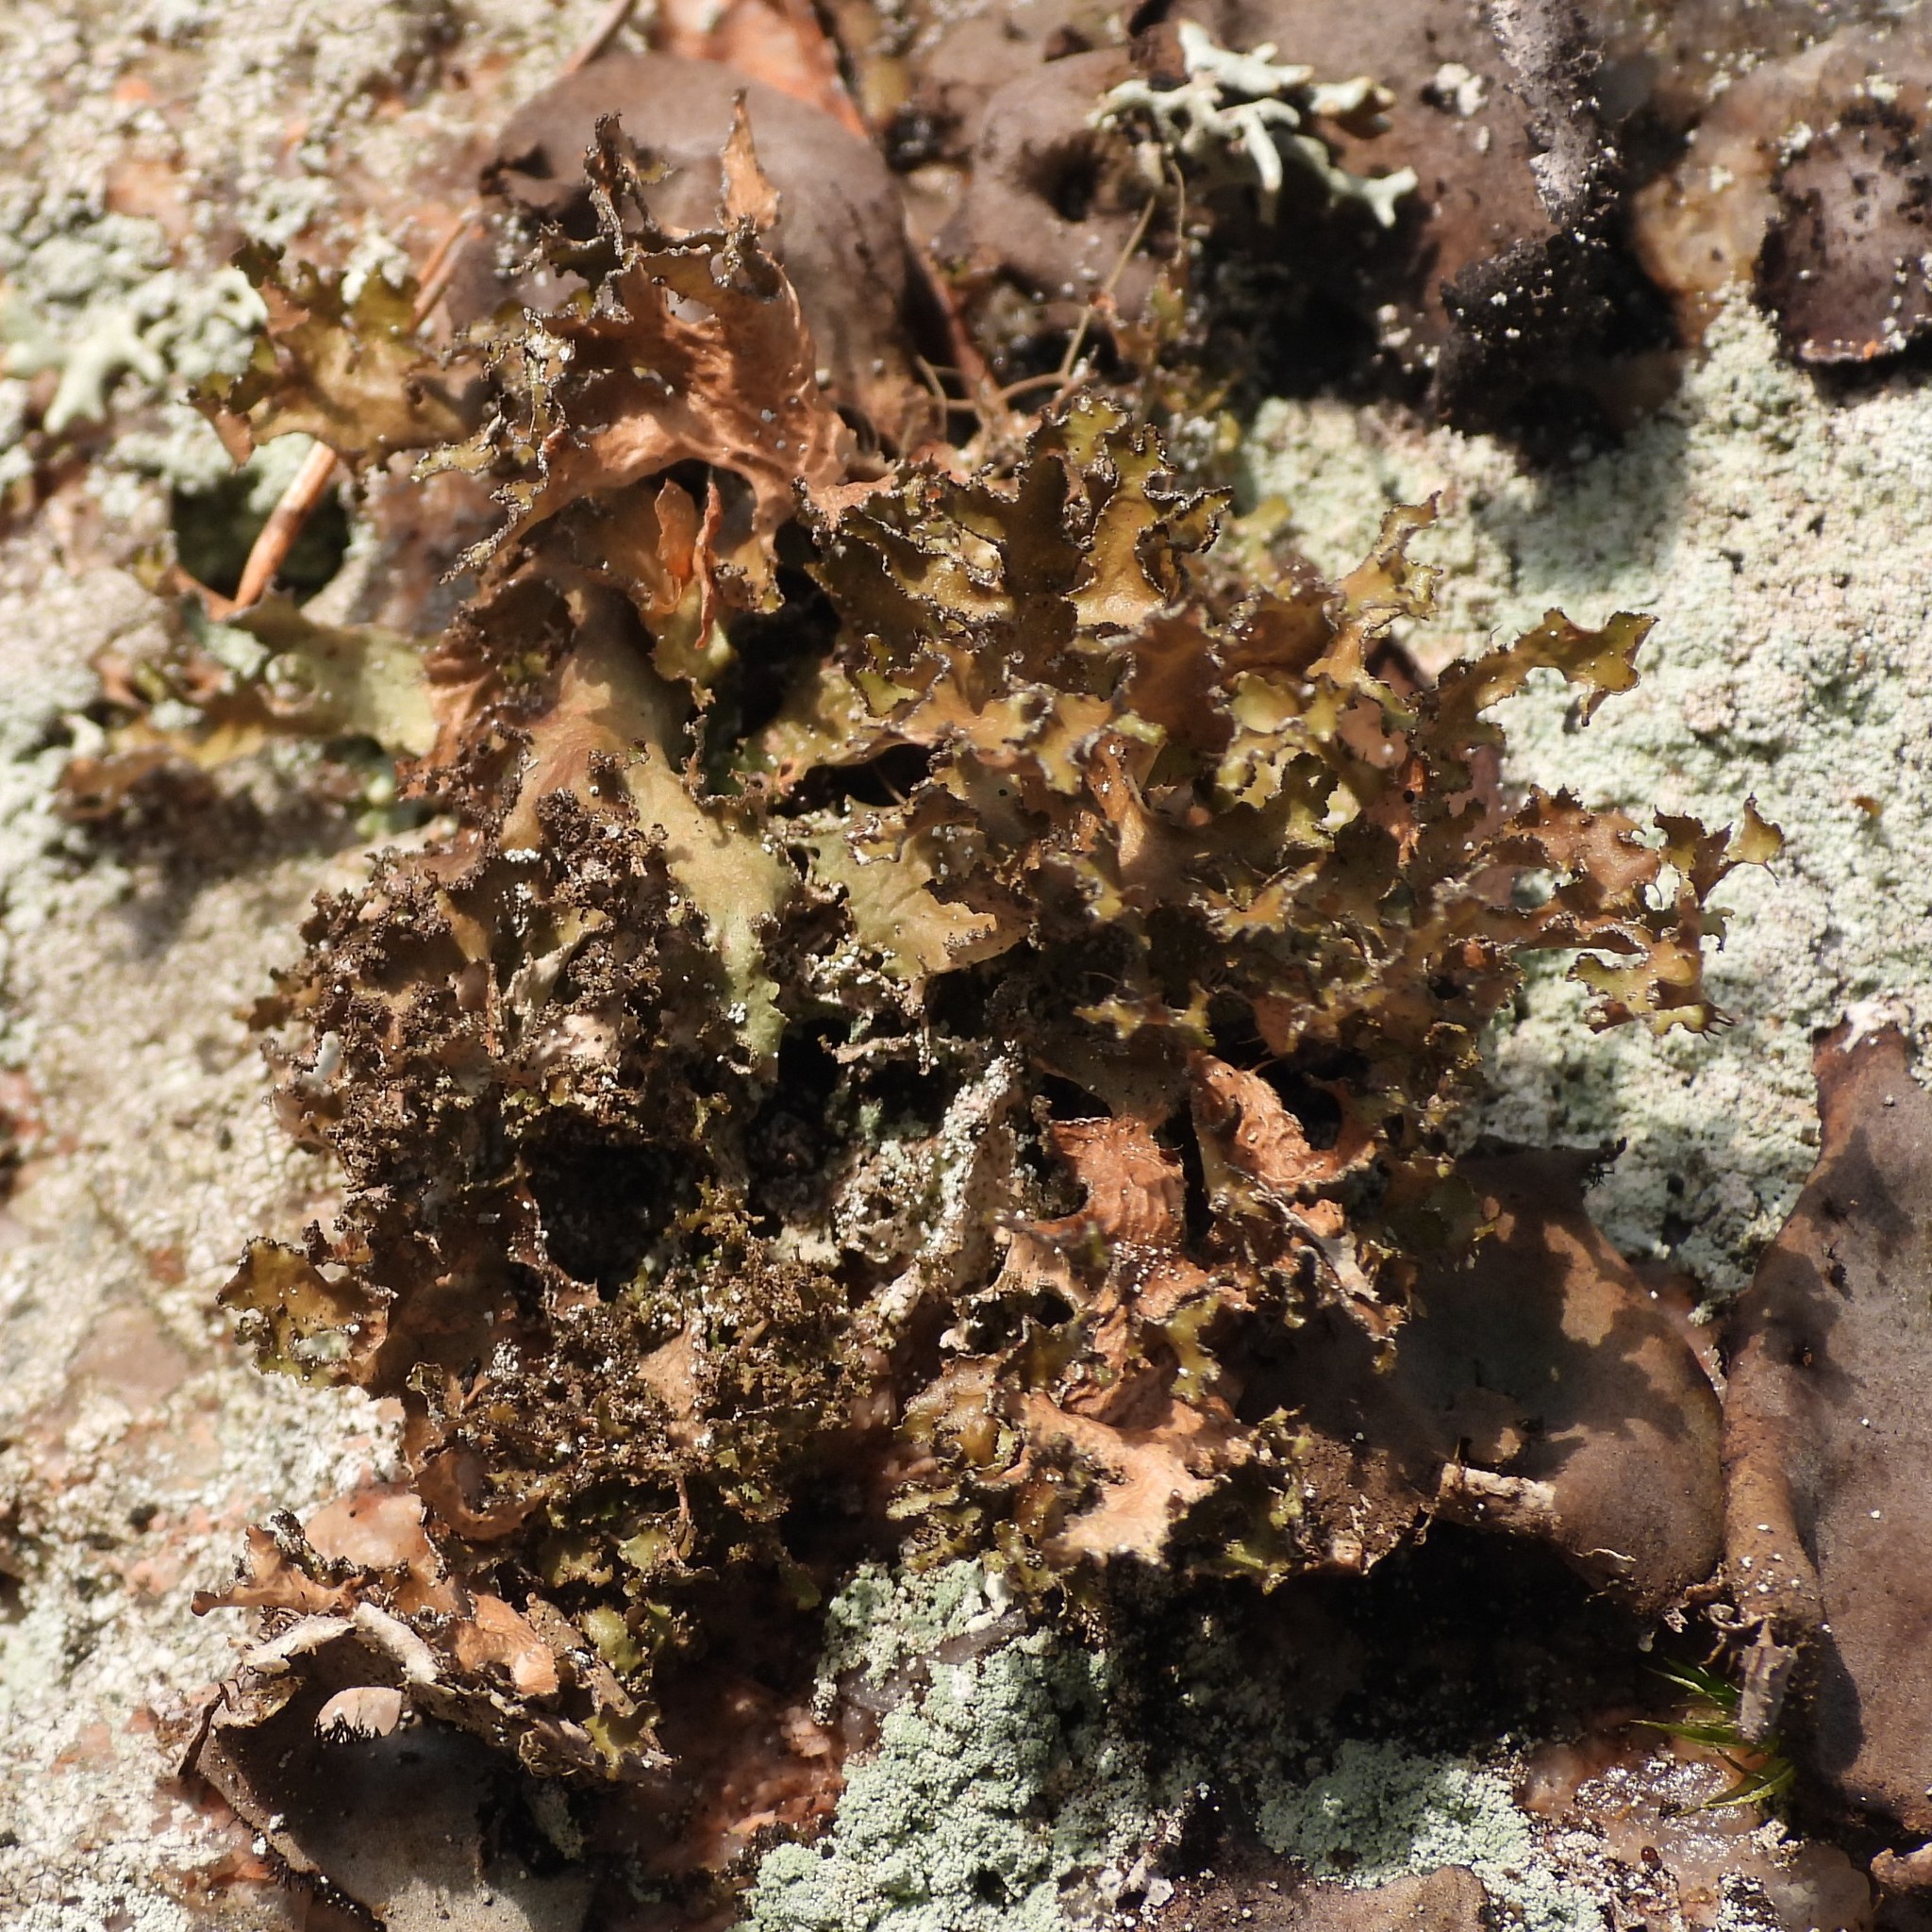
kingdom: Fungi
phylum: Ascomycota
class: Lecanoromycetes
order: Lecanorales
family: Parmeliaceae
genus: Nephromopsis
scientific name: Nephromopsis chlorophylla
